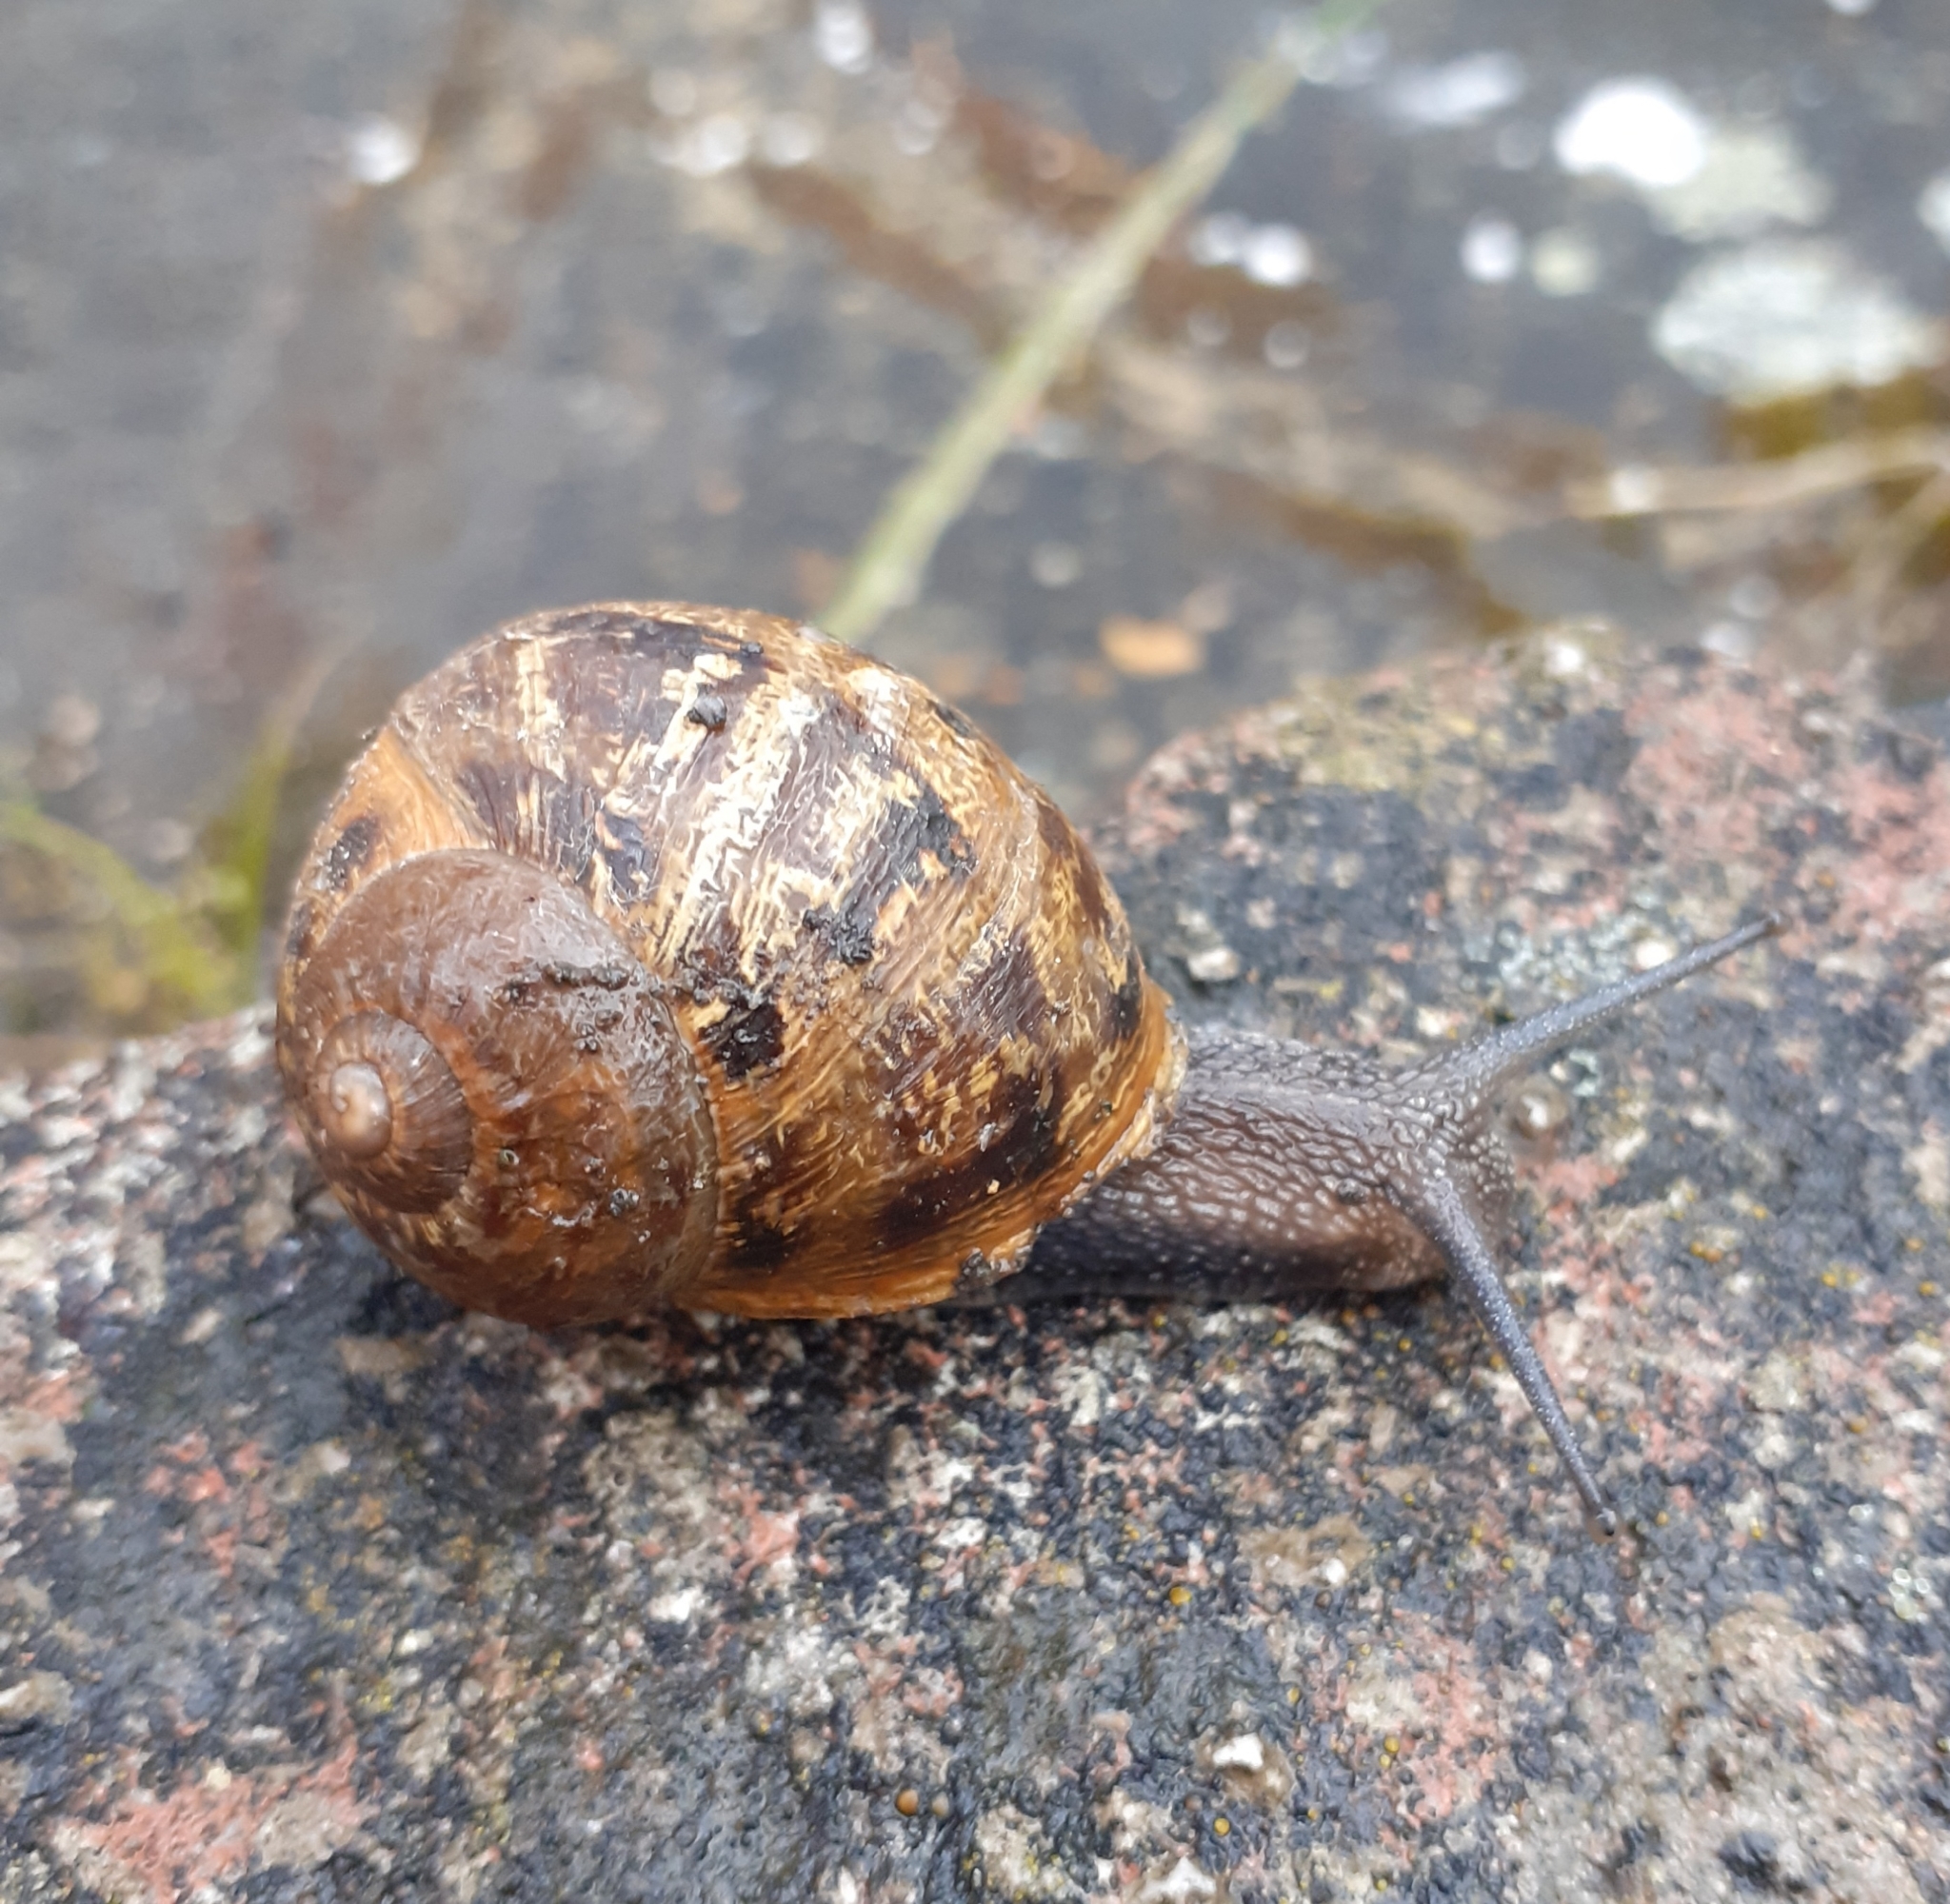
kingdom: Animalia
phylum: Mollusca
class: Gastropoda
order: Stylommatophora
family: Helicidae
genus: Cornu
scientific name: Cornu aspersum
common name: Brown garden snail
